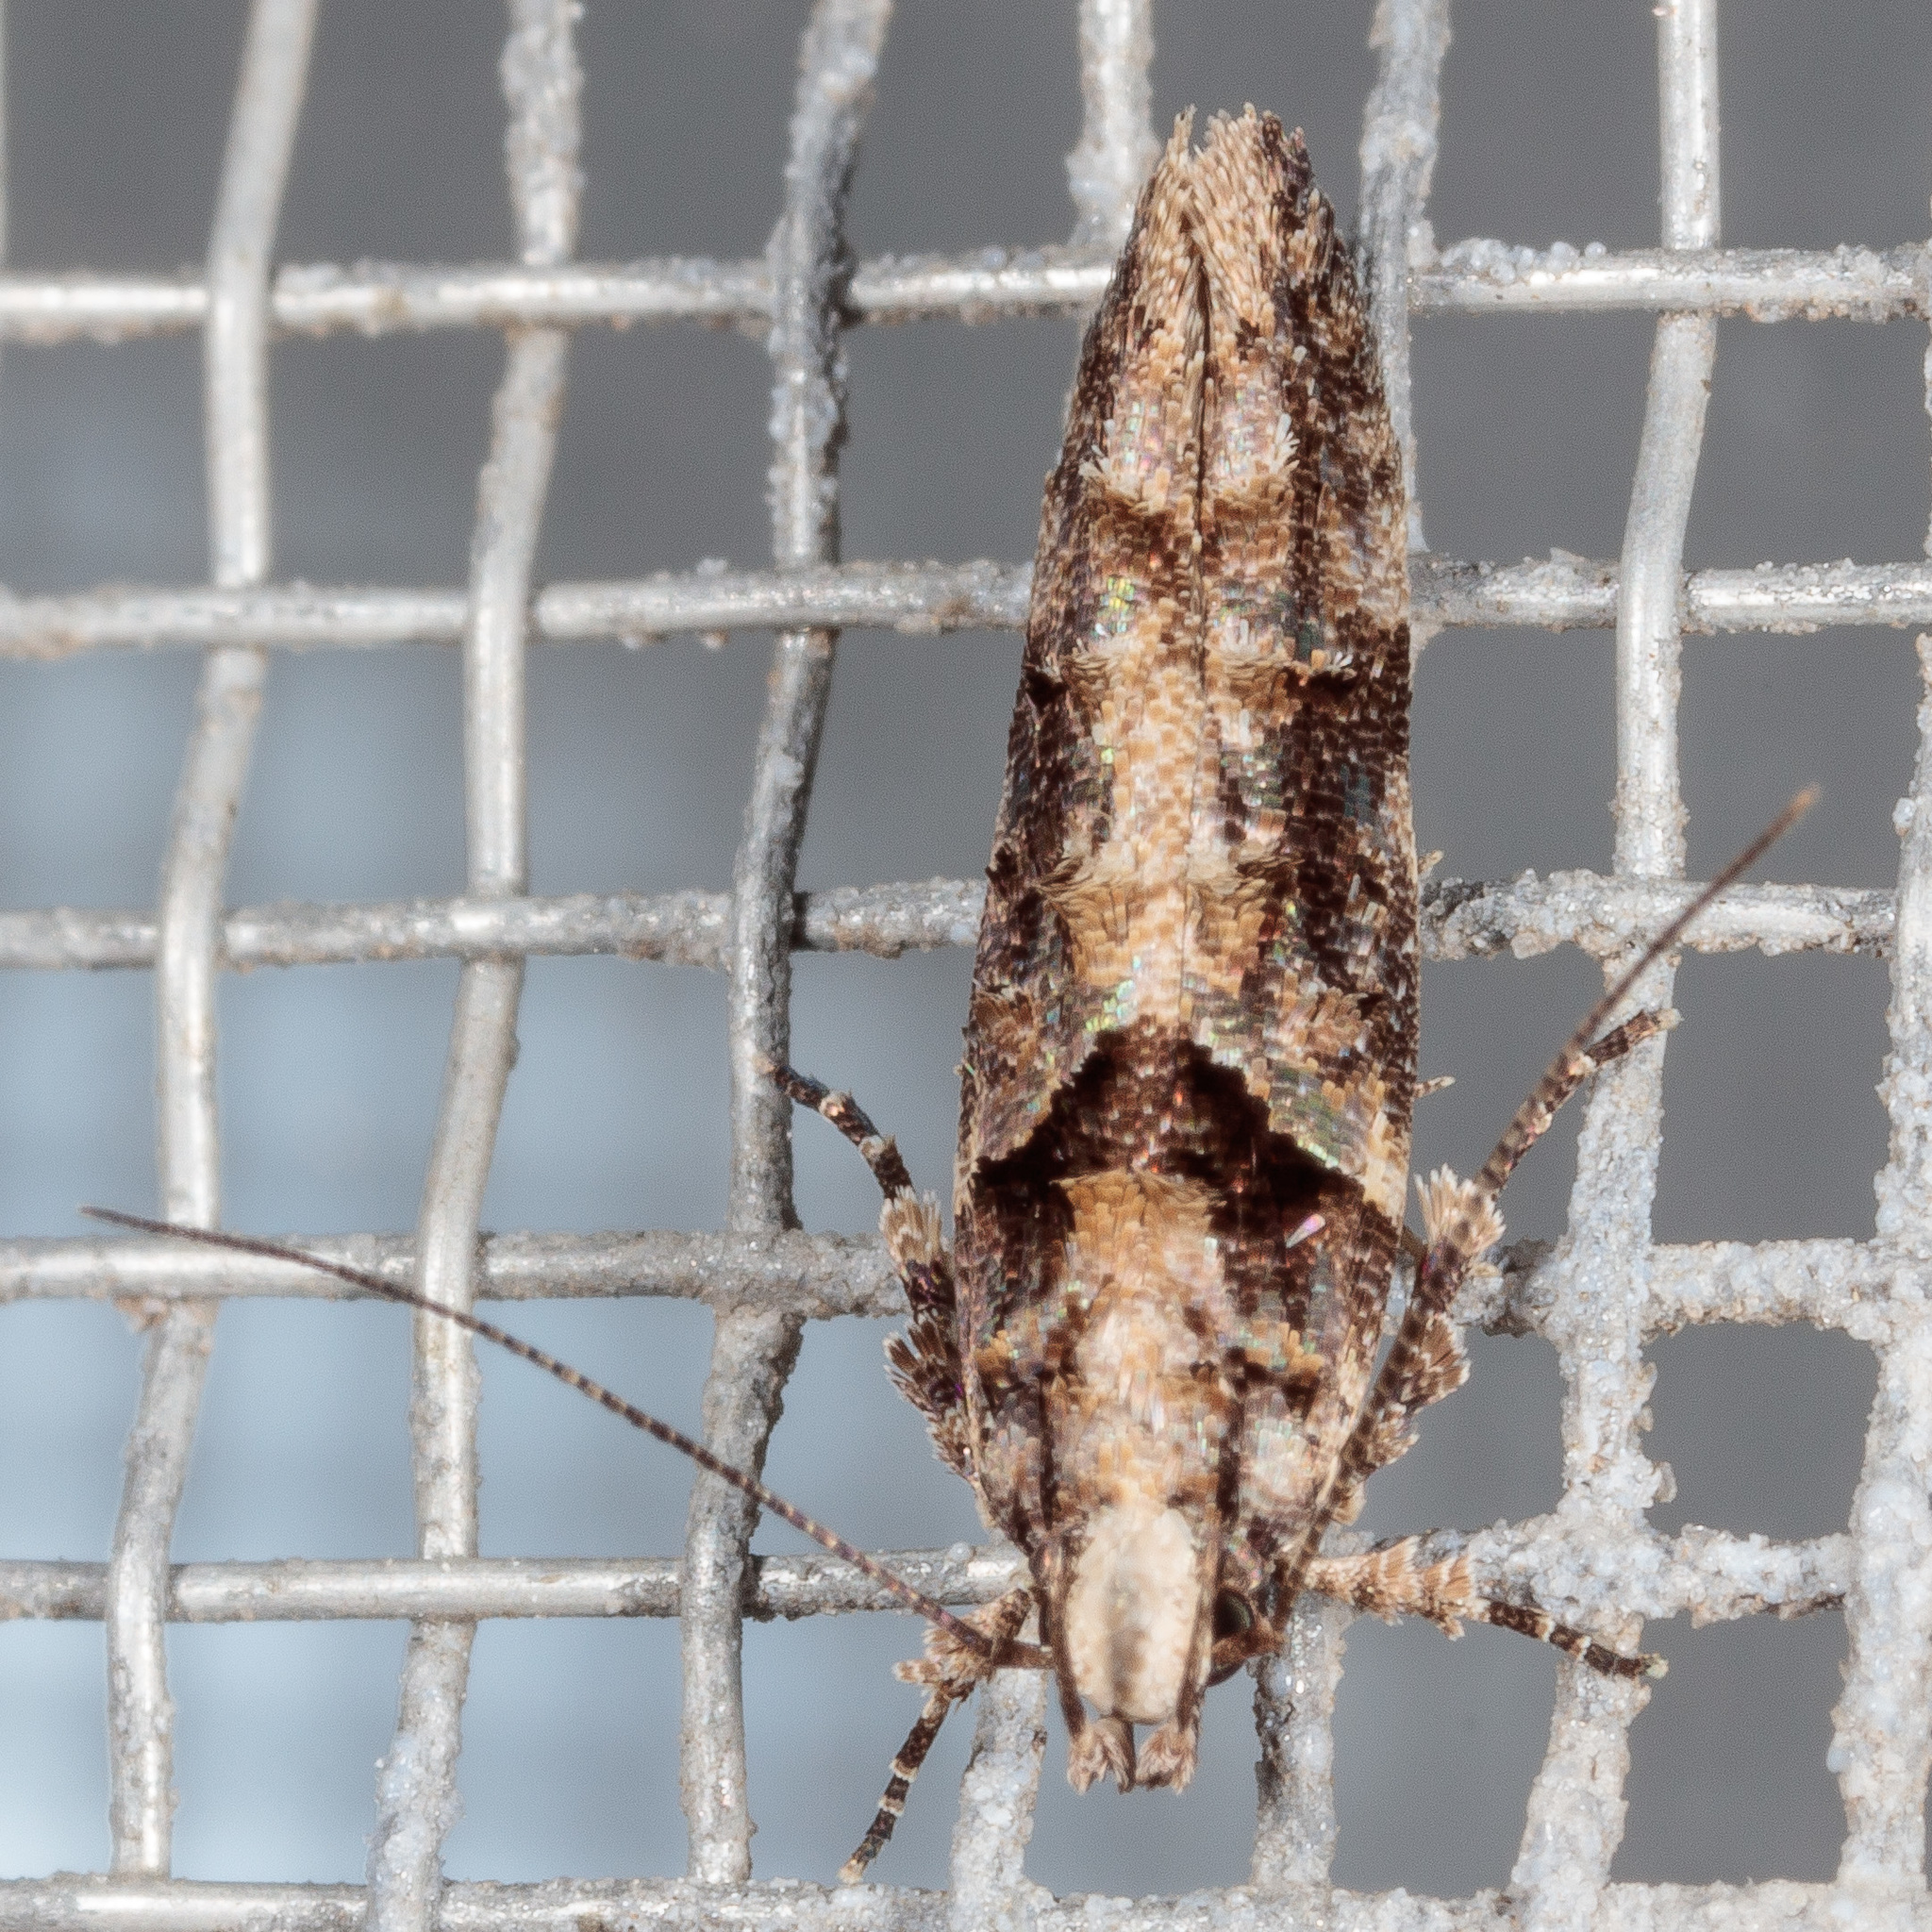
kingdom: Animalia
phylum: Arthropoda
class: Insecta
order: Lepidoptera
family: Gelechiidae
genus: Telphusa
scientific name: Telphusa perspicua
